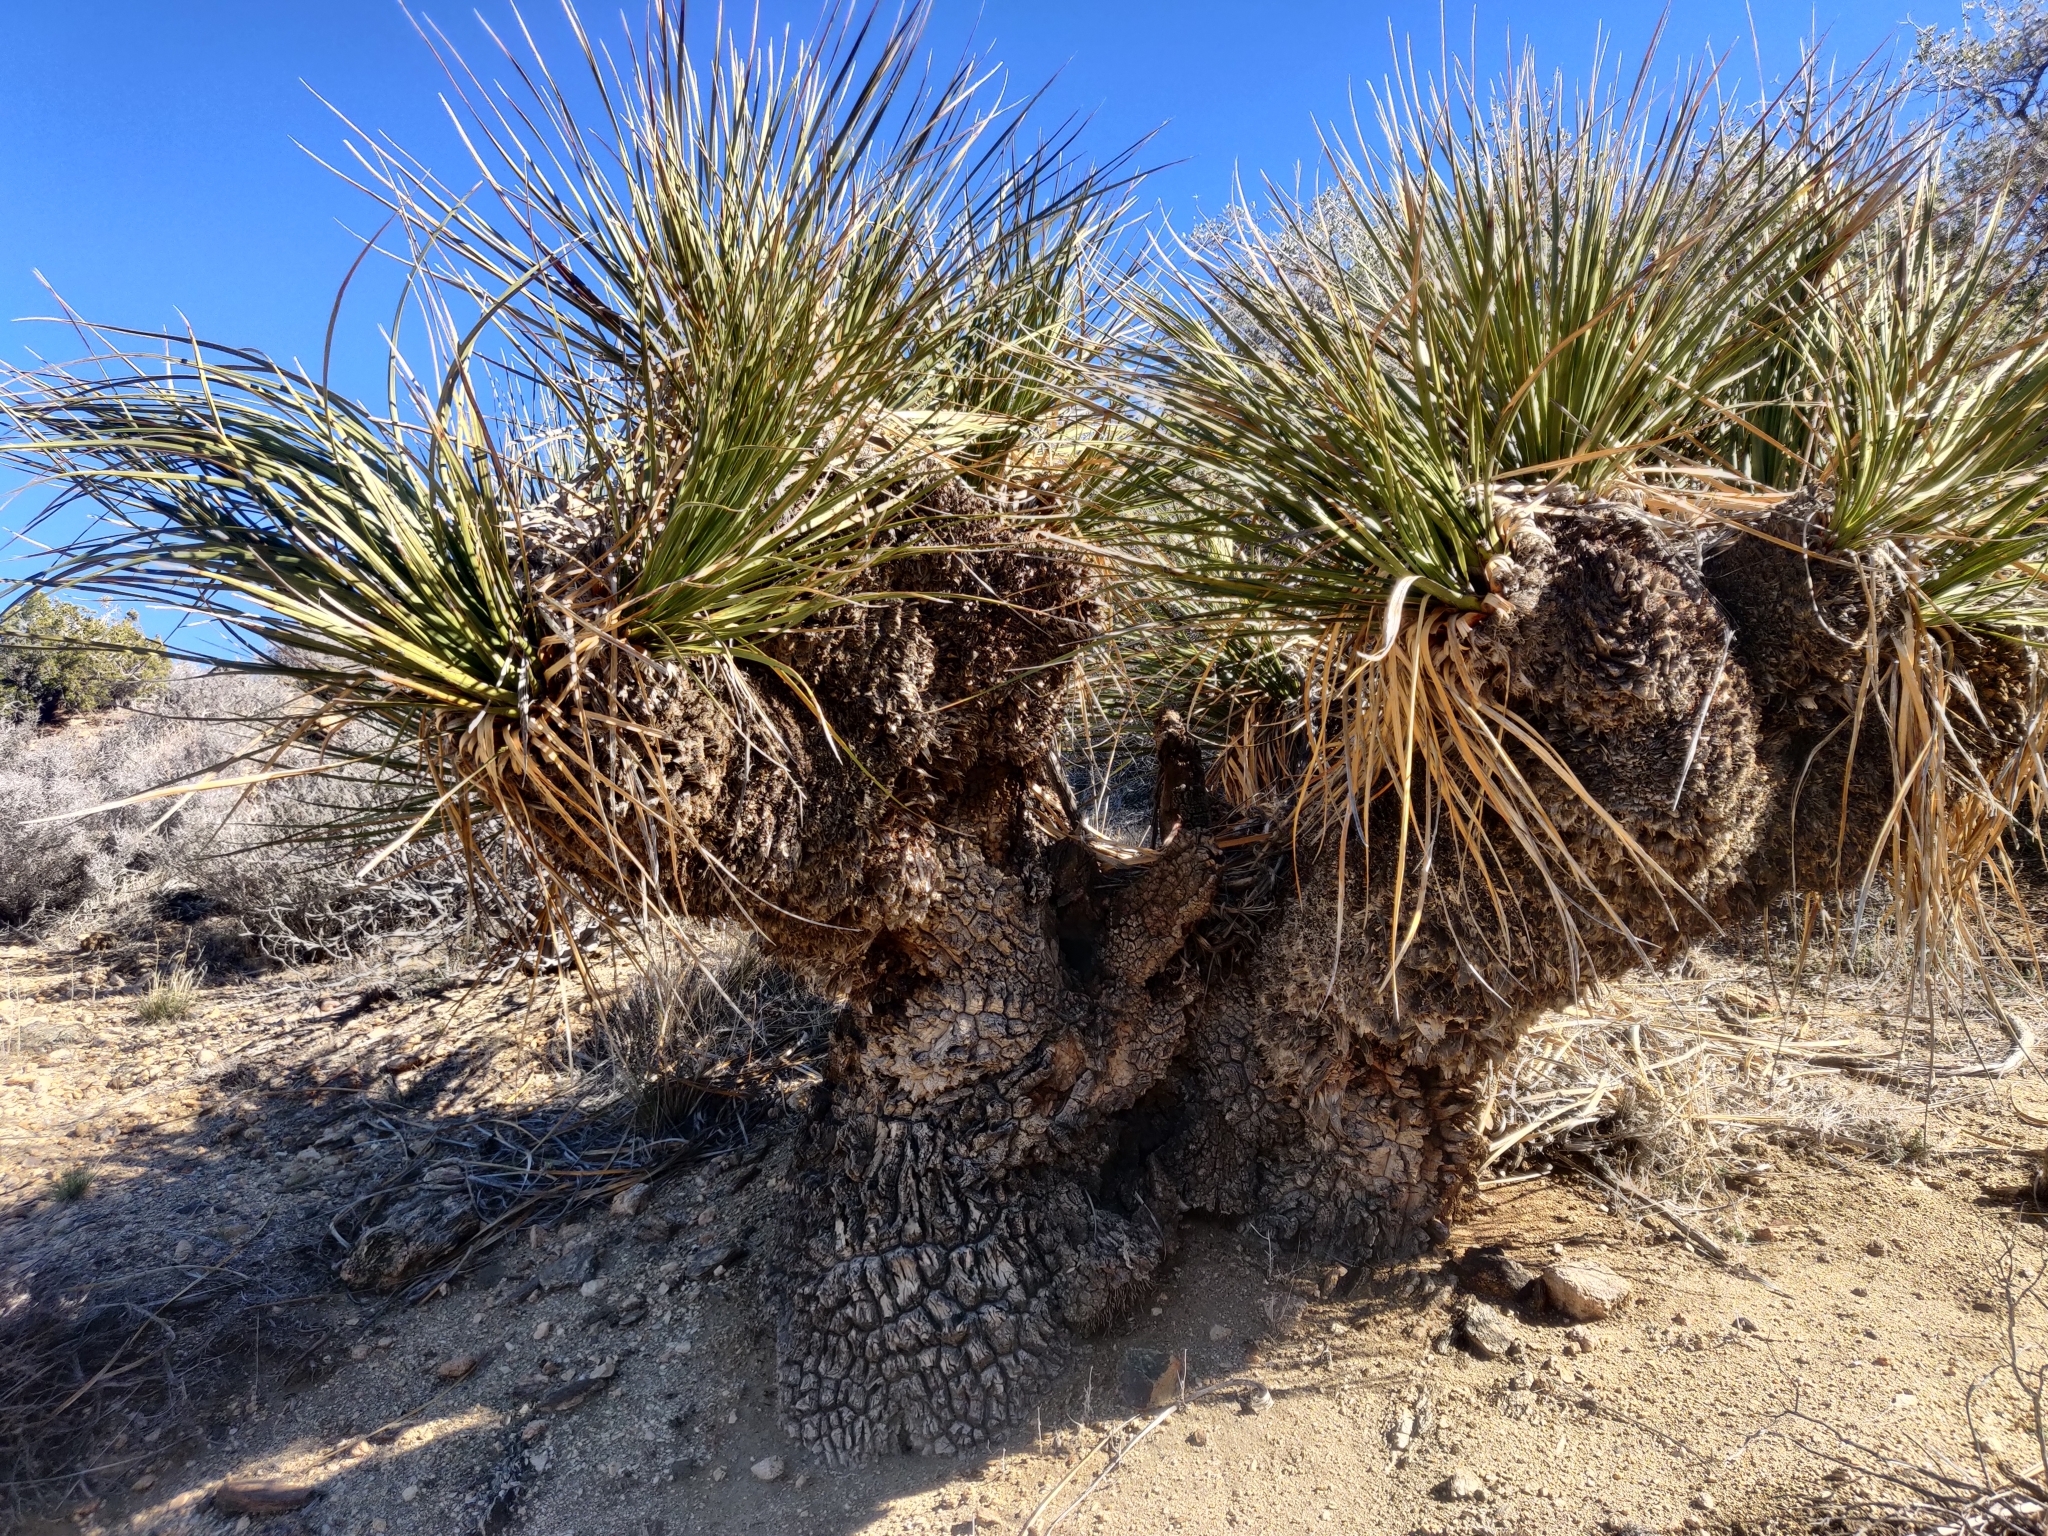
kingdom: Plantae
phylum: Tracheophyta
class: Liliopsida
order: Asparagales
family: Asparagaceae
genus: Nolina
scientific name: Nolina parryi
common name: Parry nolina
